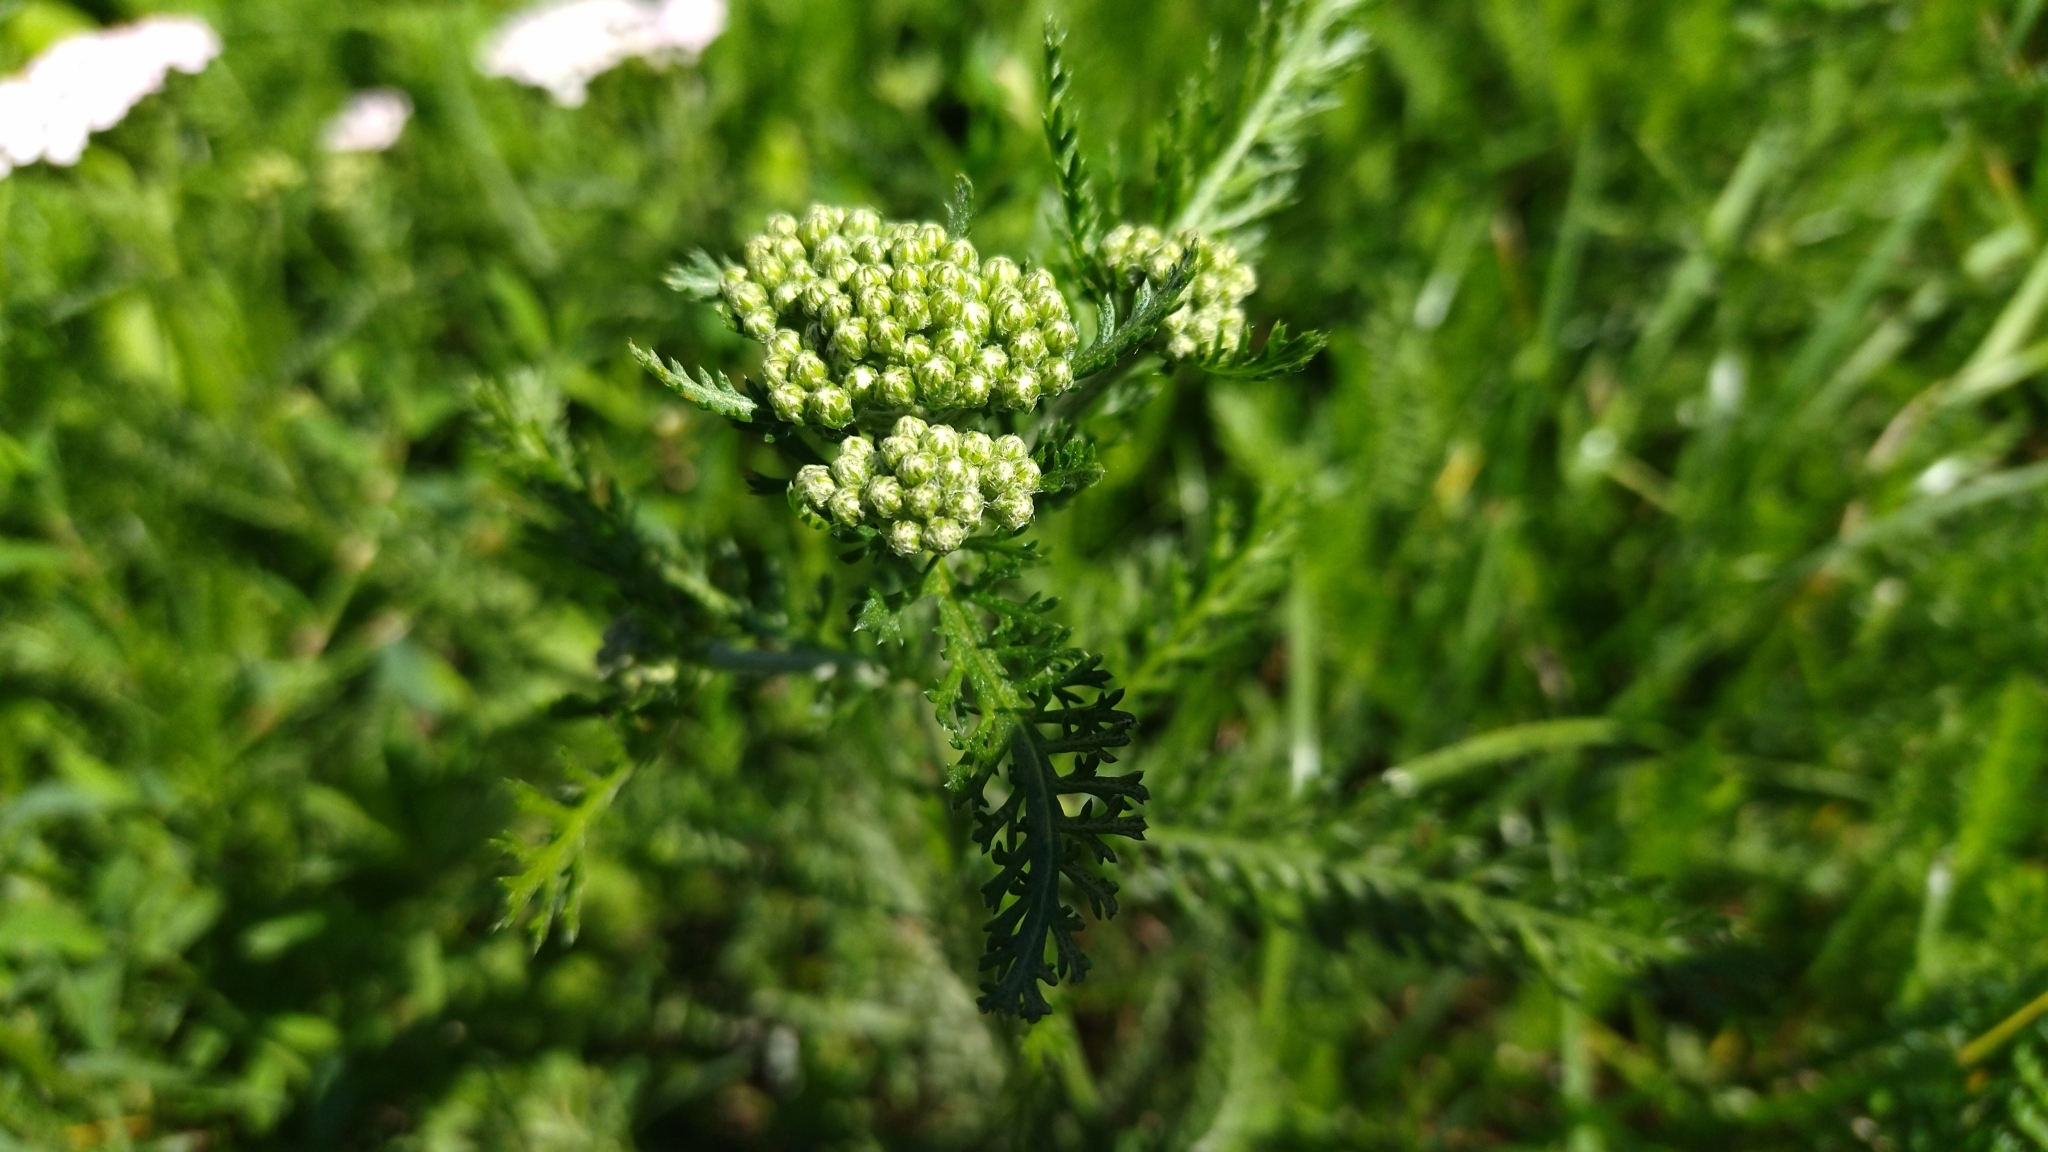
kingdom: Plantae
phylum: Tracheophyta
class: Magnoliopsida
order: Asterales
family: Asteraceae
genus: Achillea
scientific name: Achillea millefolium
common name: Yarrow
